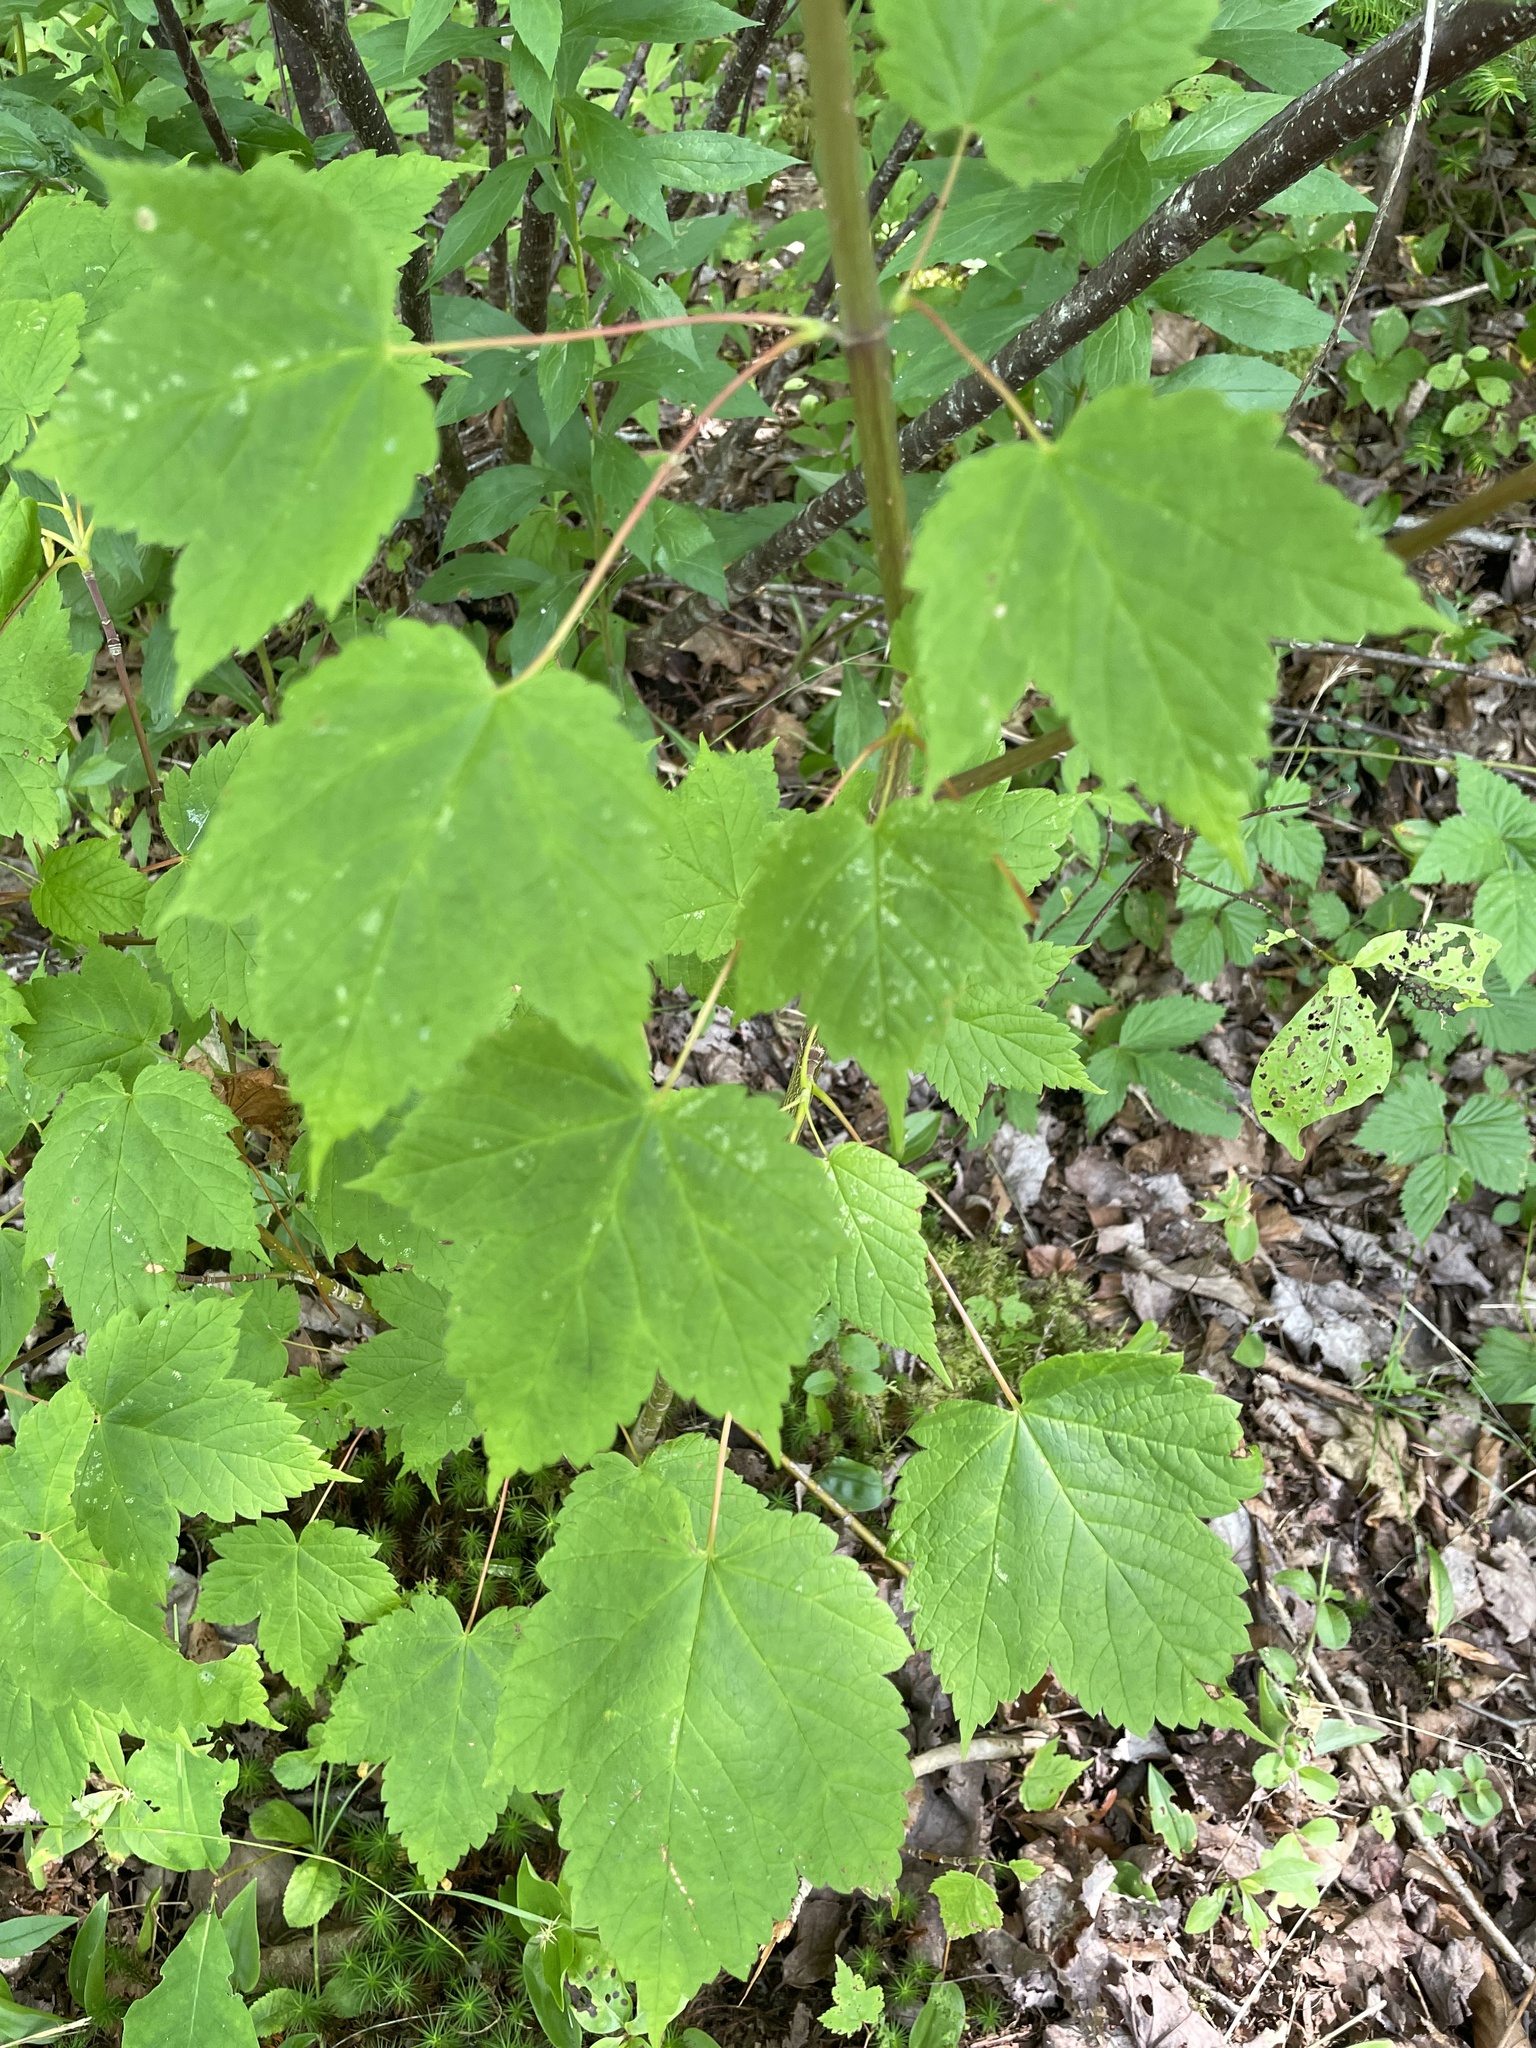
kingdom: Plantae
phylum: Tracheophyta
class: Magnoliopsida
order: Sapindales
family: Sapindaceae
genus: Acer
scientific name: Acer spicatum
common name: Mountain maple
